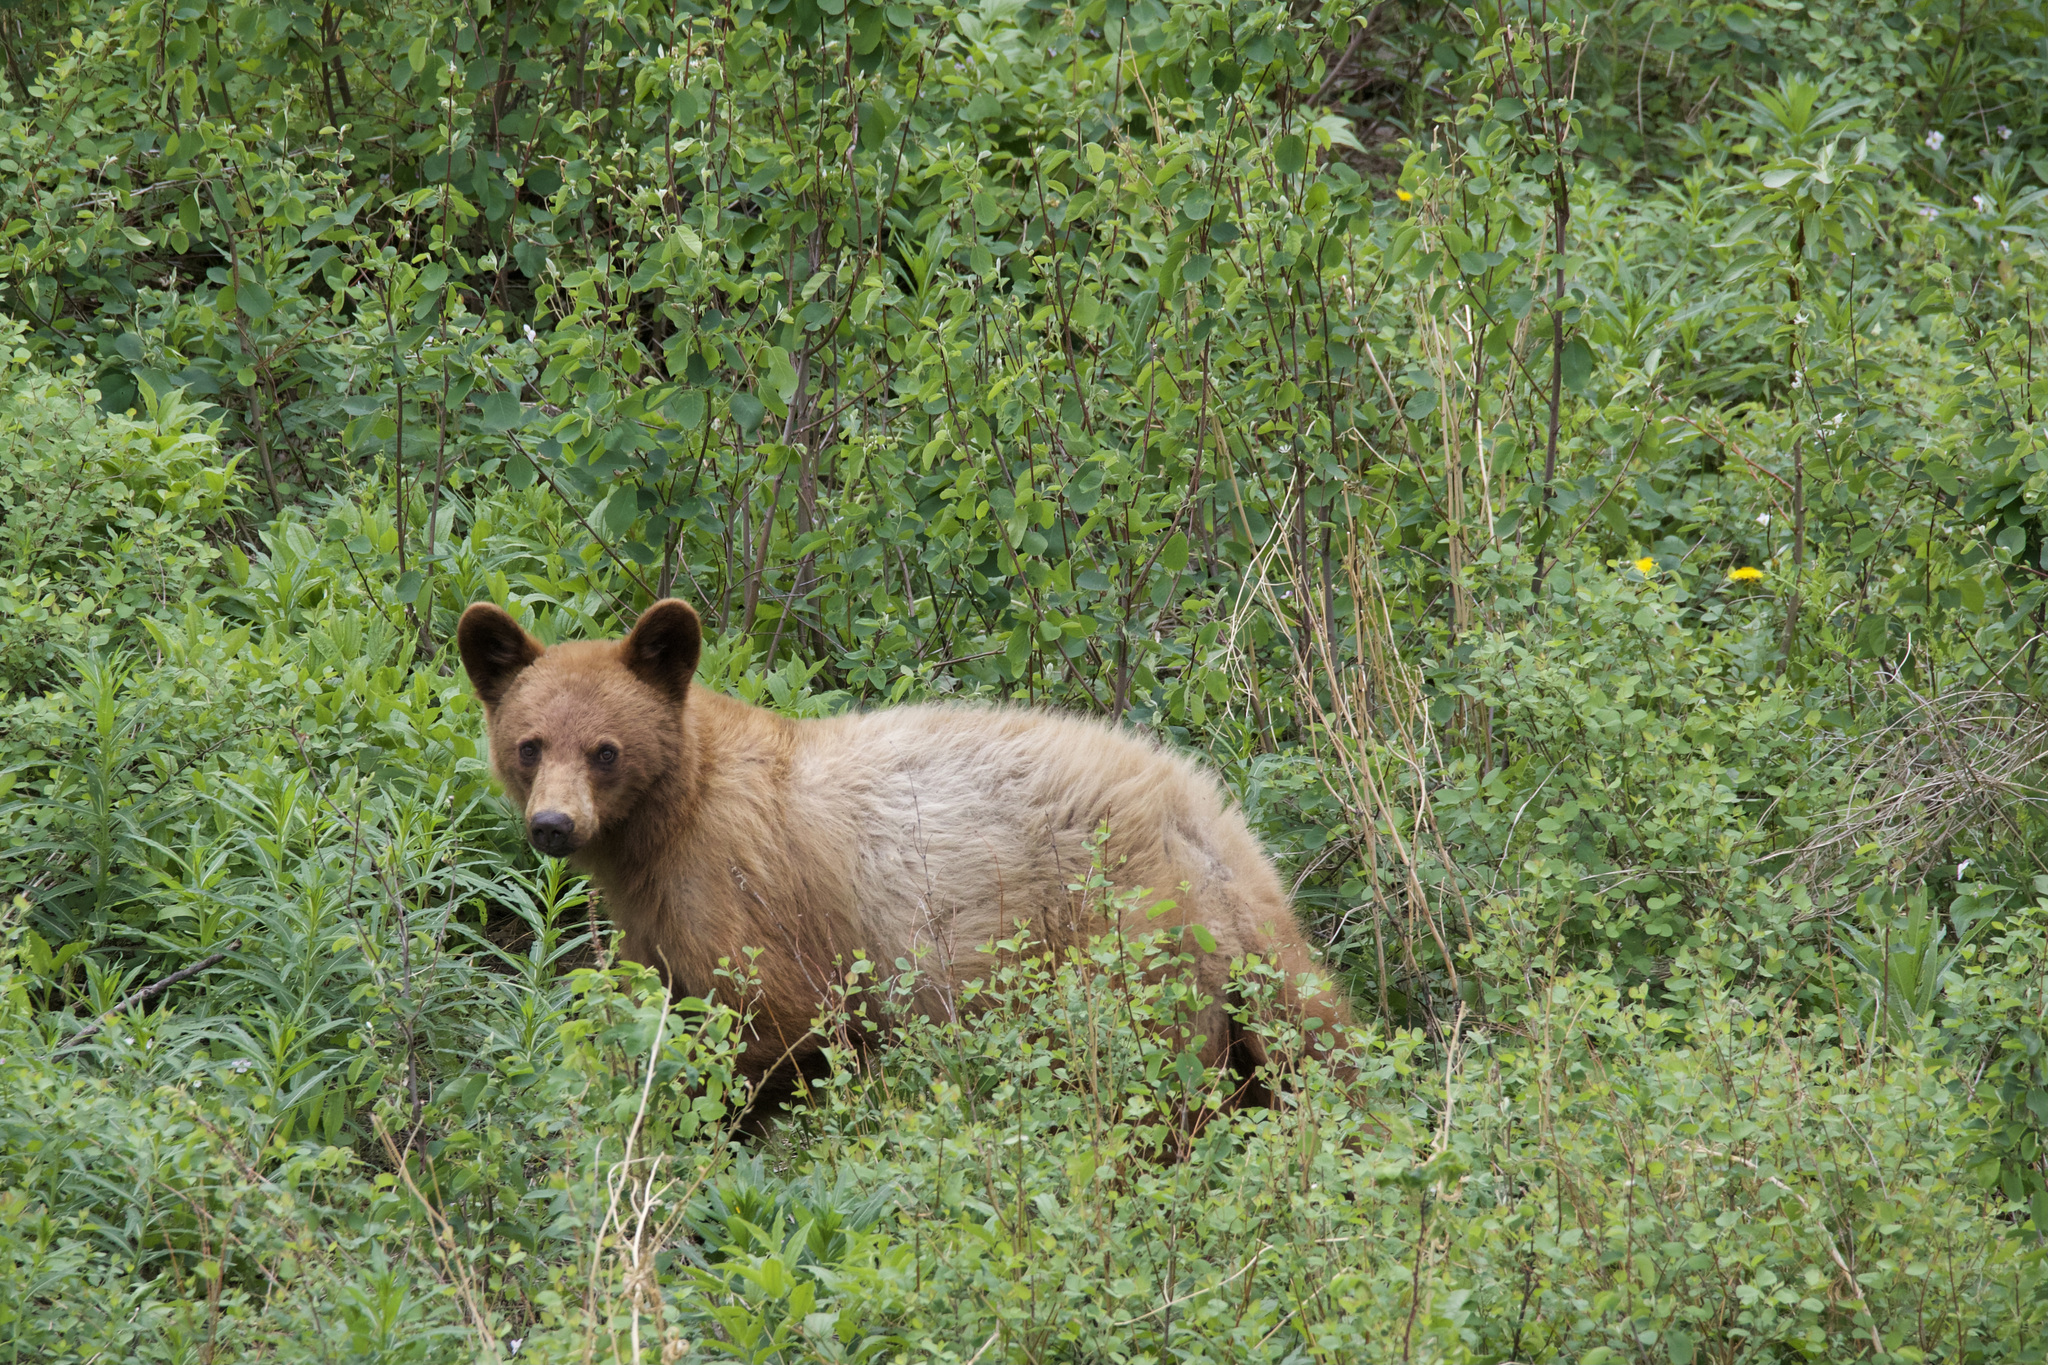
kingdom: Animalia
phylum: Chordata
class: Mammalia
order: Carnivora
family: Ursidae
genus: Ursus
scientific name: Ursus americanus
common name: American black bear
